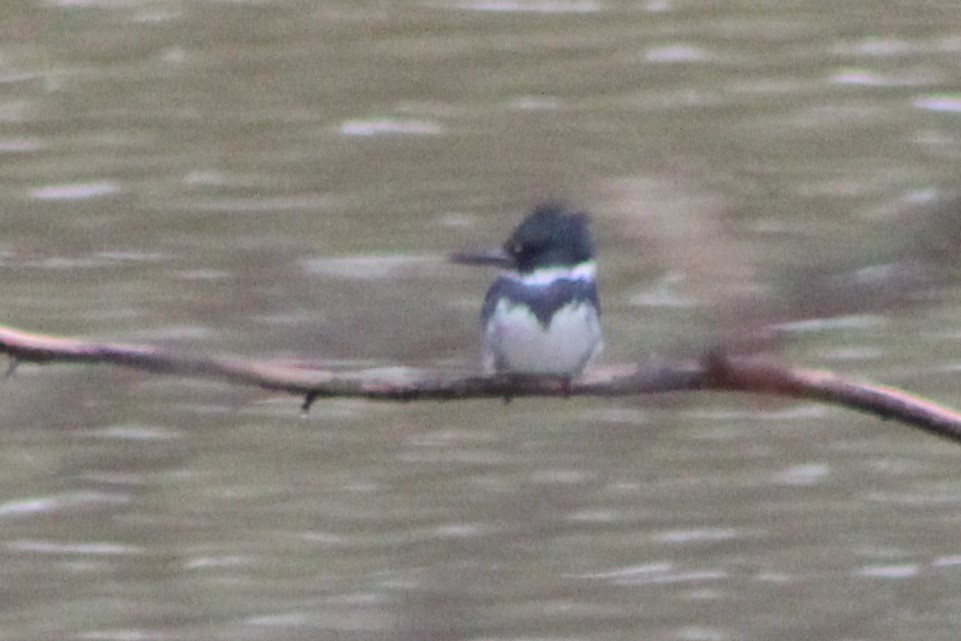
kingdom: Animalia
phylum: Chordata
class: Aves
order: Coraciiformes
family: Alcedinidae
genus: Megaceryle
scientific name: Megaceryle alcyon
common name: Belted kingfisher
